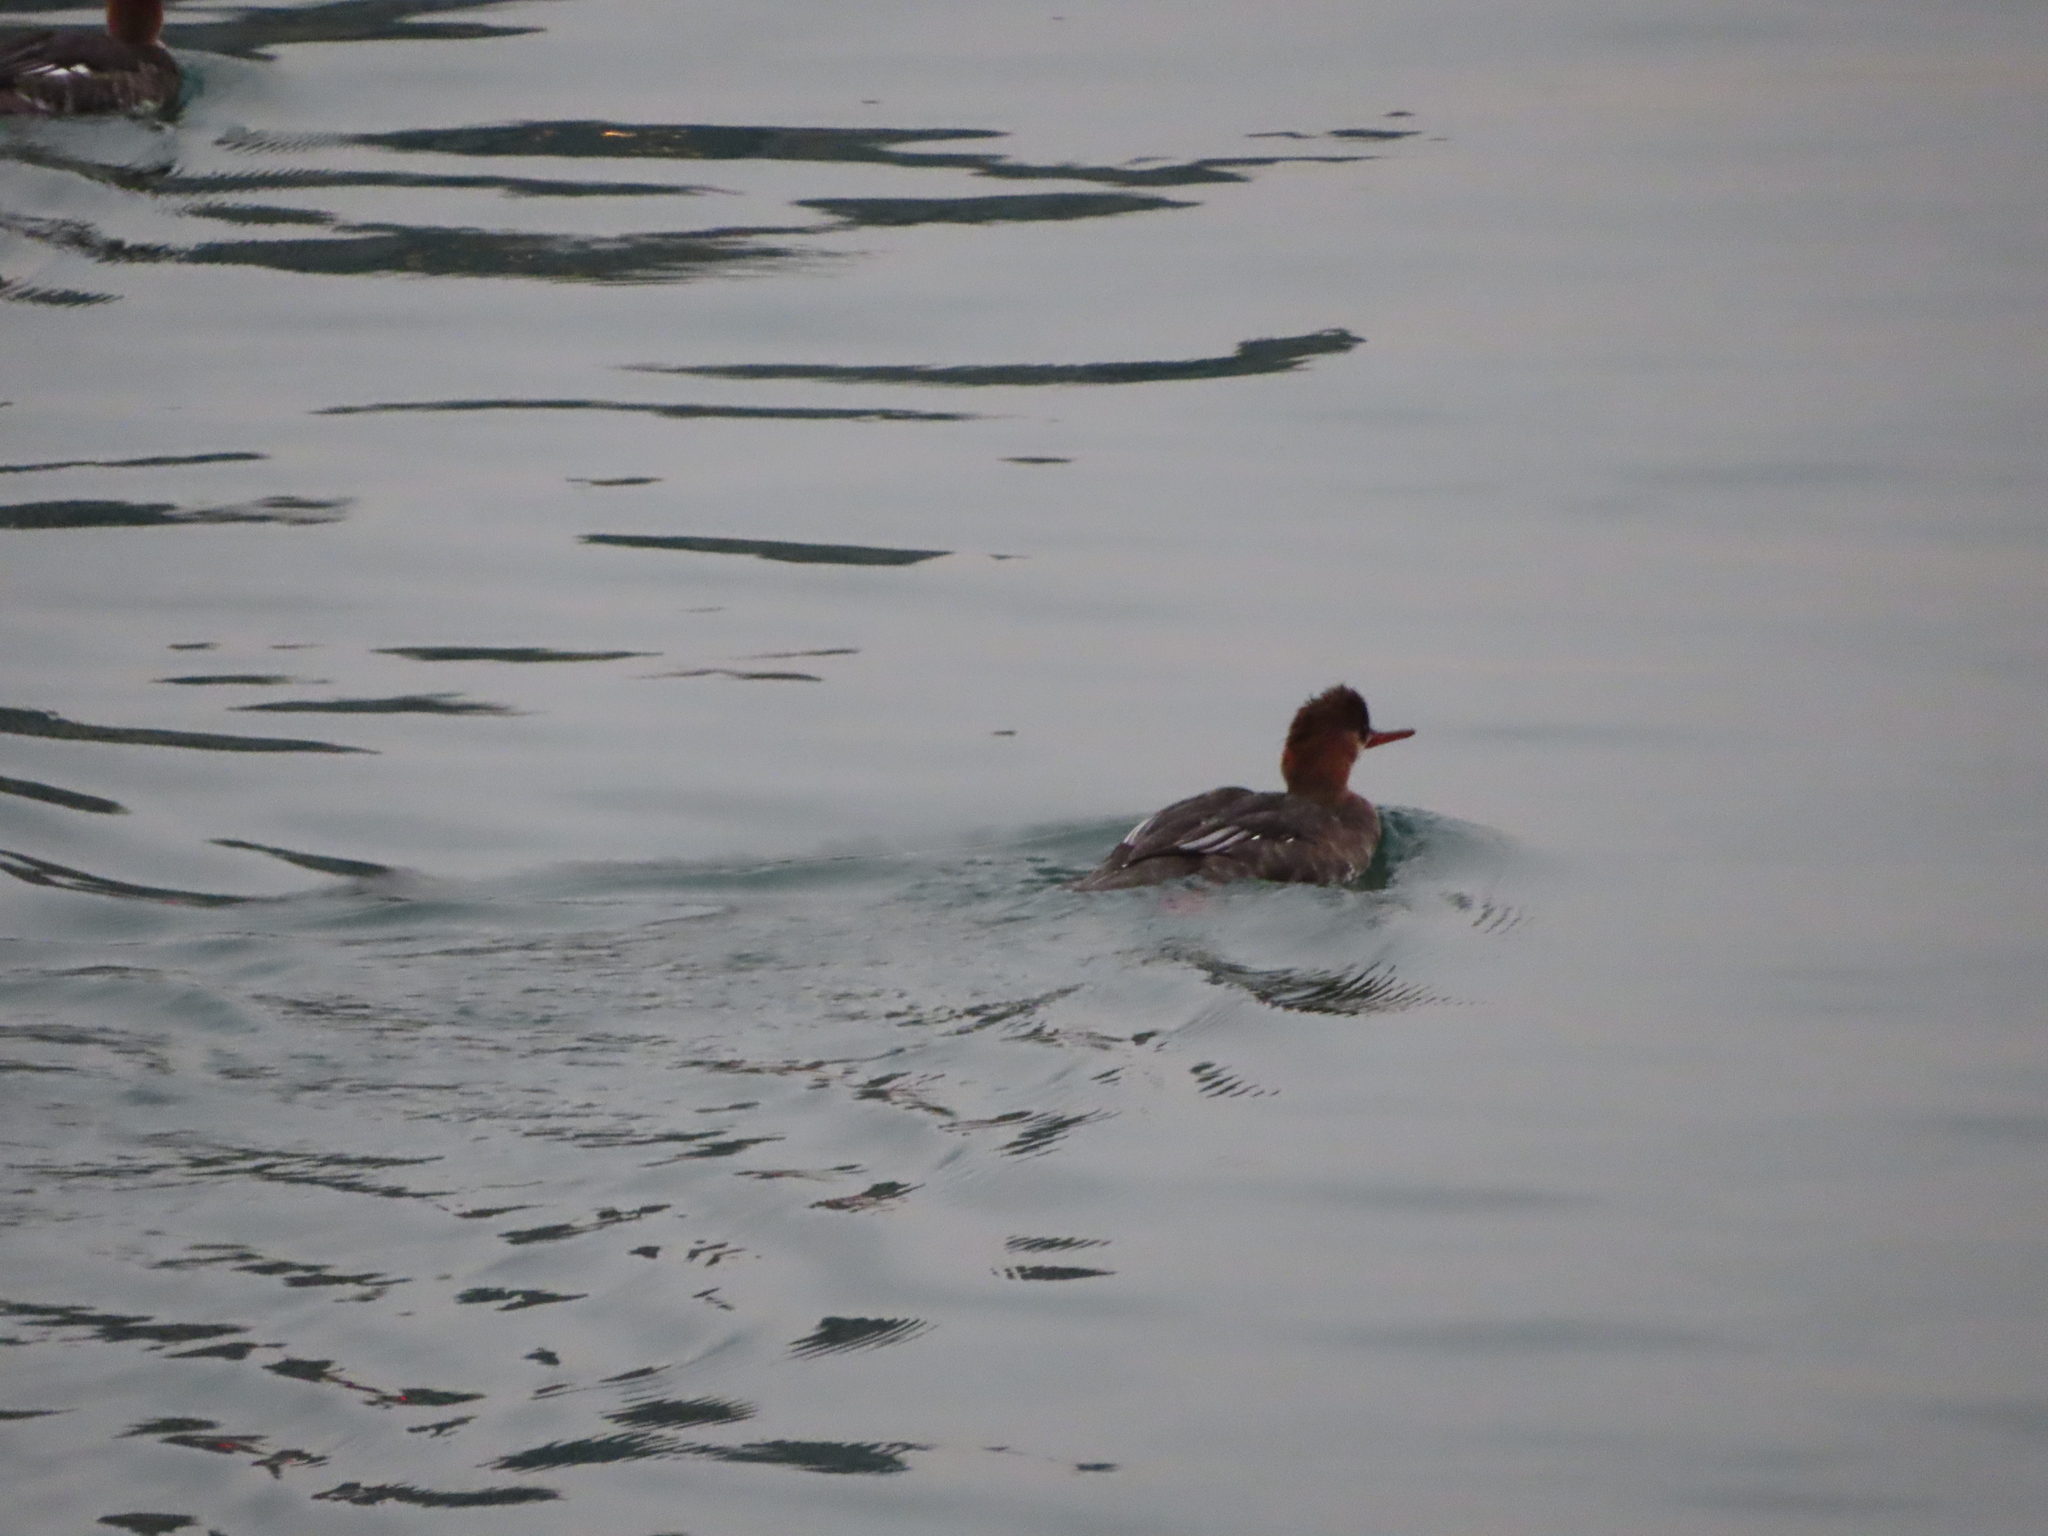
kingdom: Animalia
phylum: Chordata
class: Aves
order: Anseriformes
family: Anatidae
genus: Mergus
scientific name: Mergus serrator
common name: Red-breasted merganser
